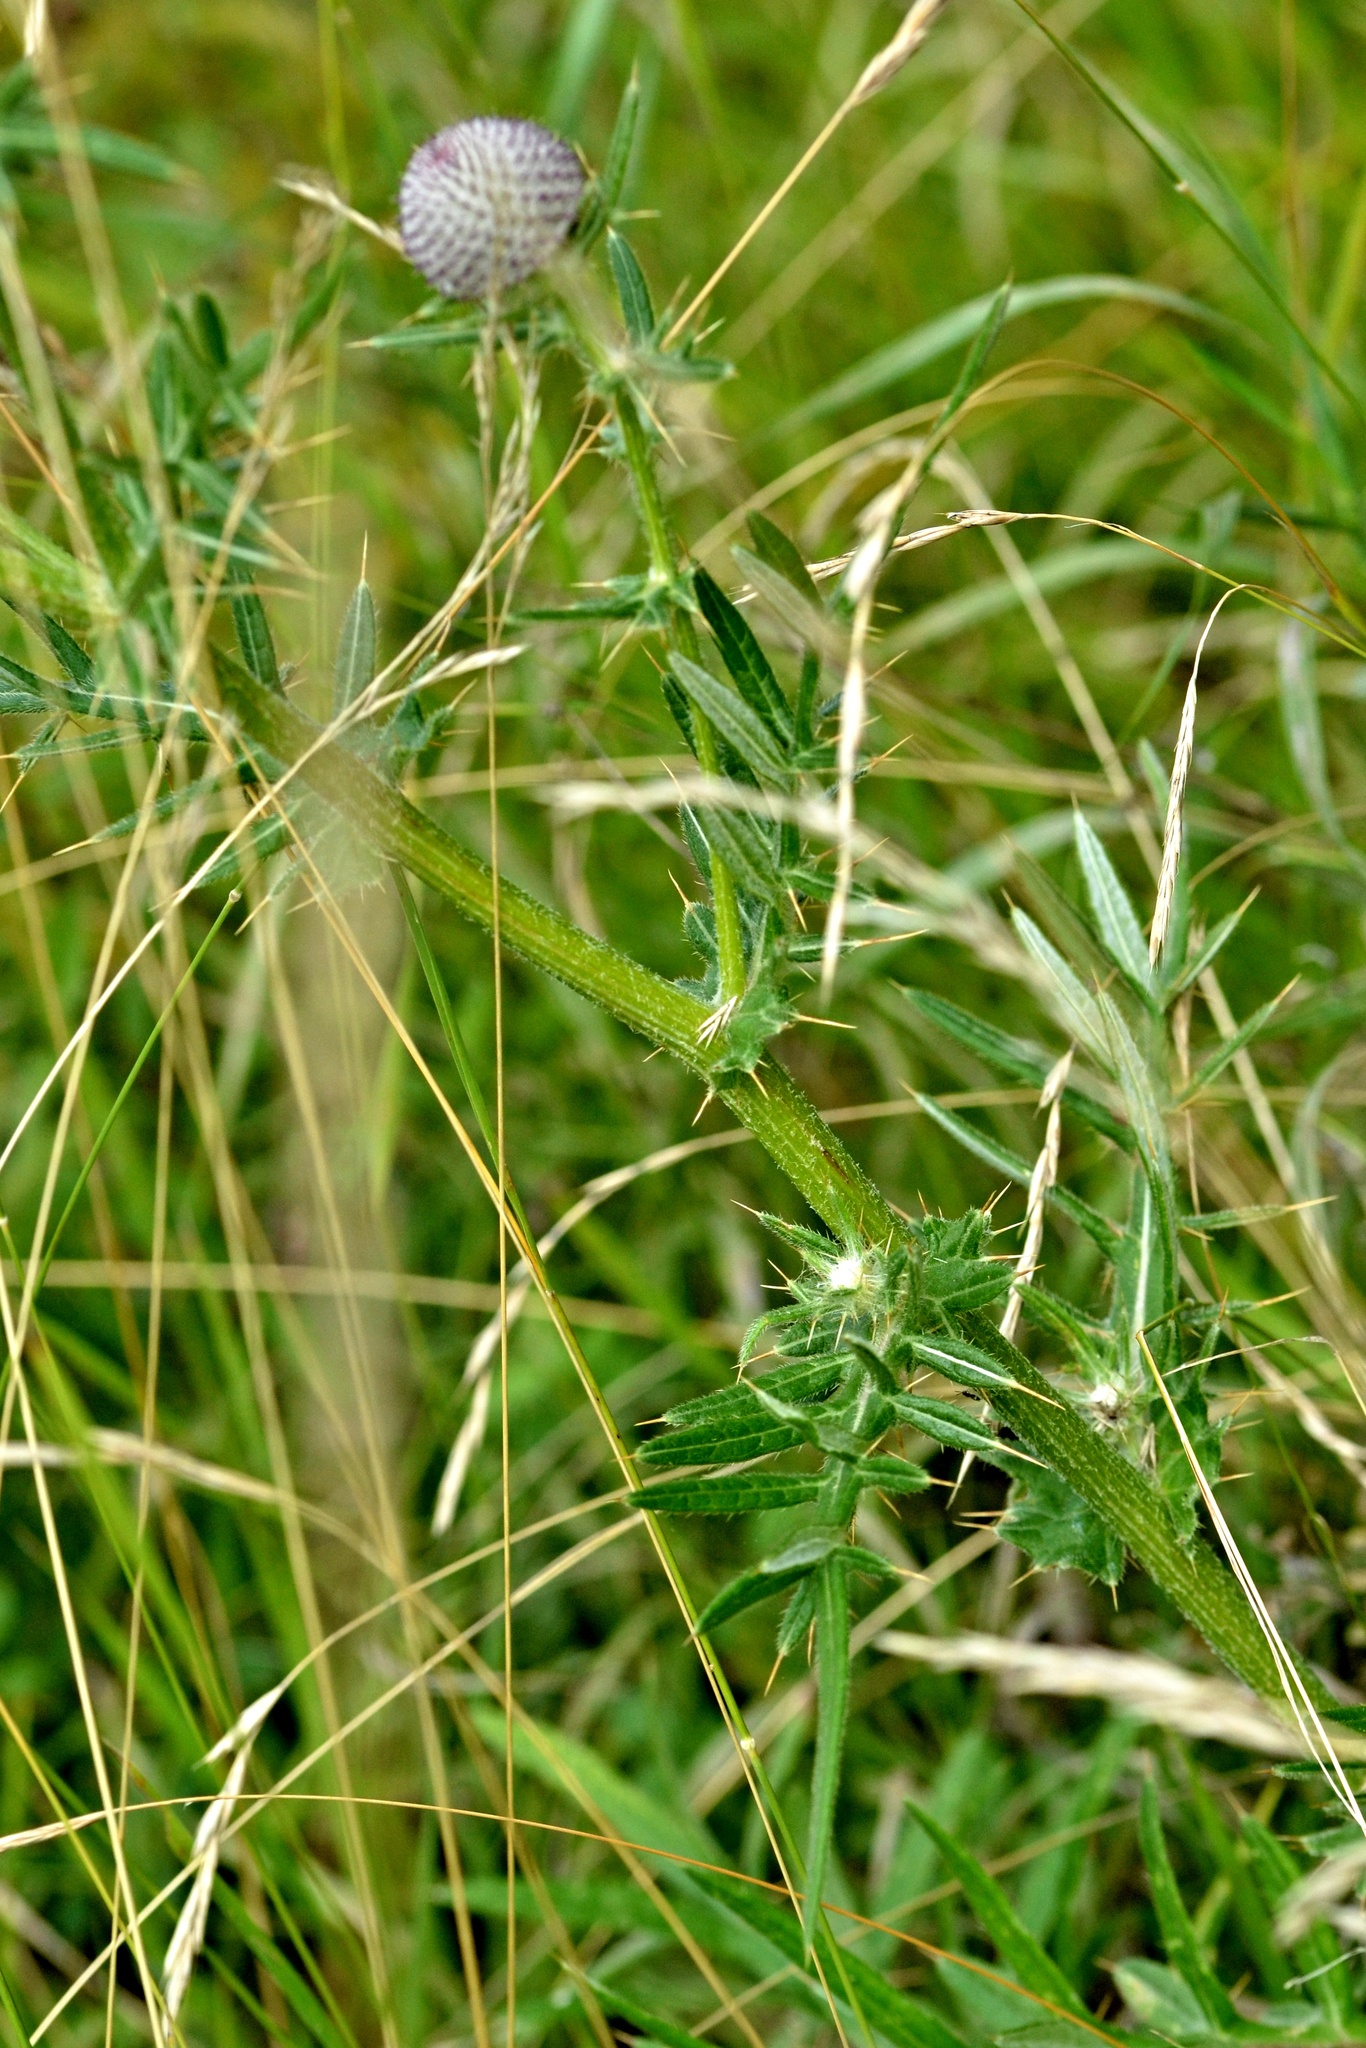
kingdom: Plantae
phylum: Tracheophyta
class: Magnoliopsida
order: Asterales
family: Asteraceae
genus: Lophiolepis
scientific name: Lophiolepis eriophora
